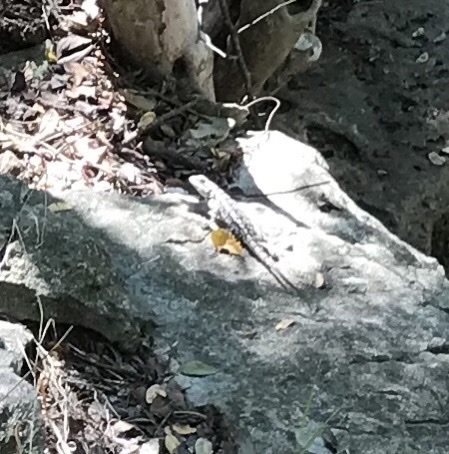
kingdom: Animalia
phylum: Chordata
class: Squamata
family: Phrynosomatidae
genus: Sceloporus
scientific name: Sceloporus olivaceus
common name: Texas spiny lizard
